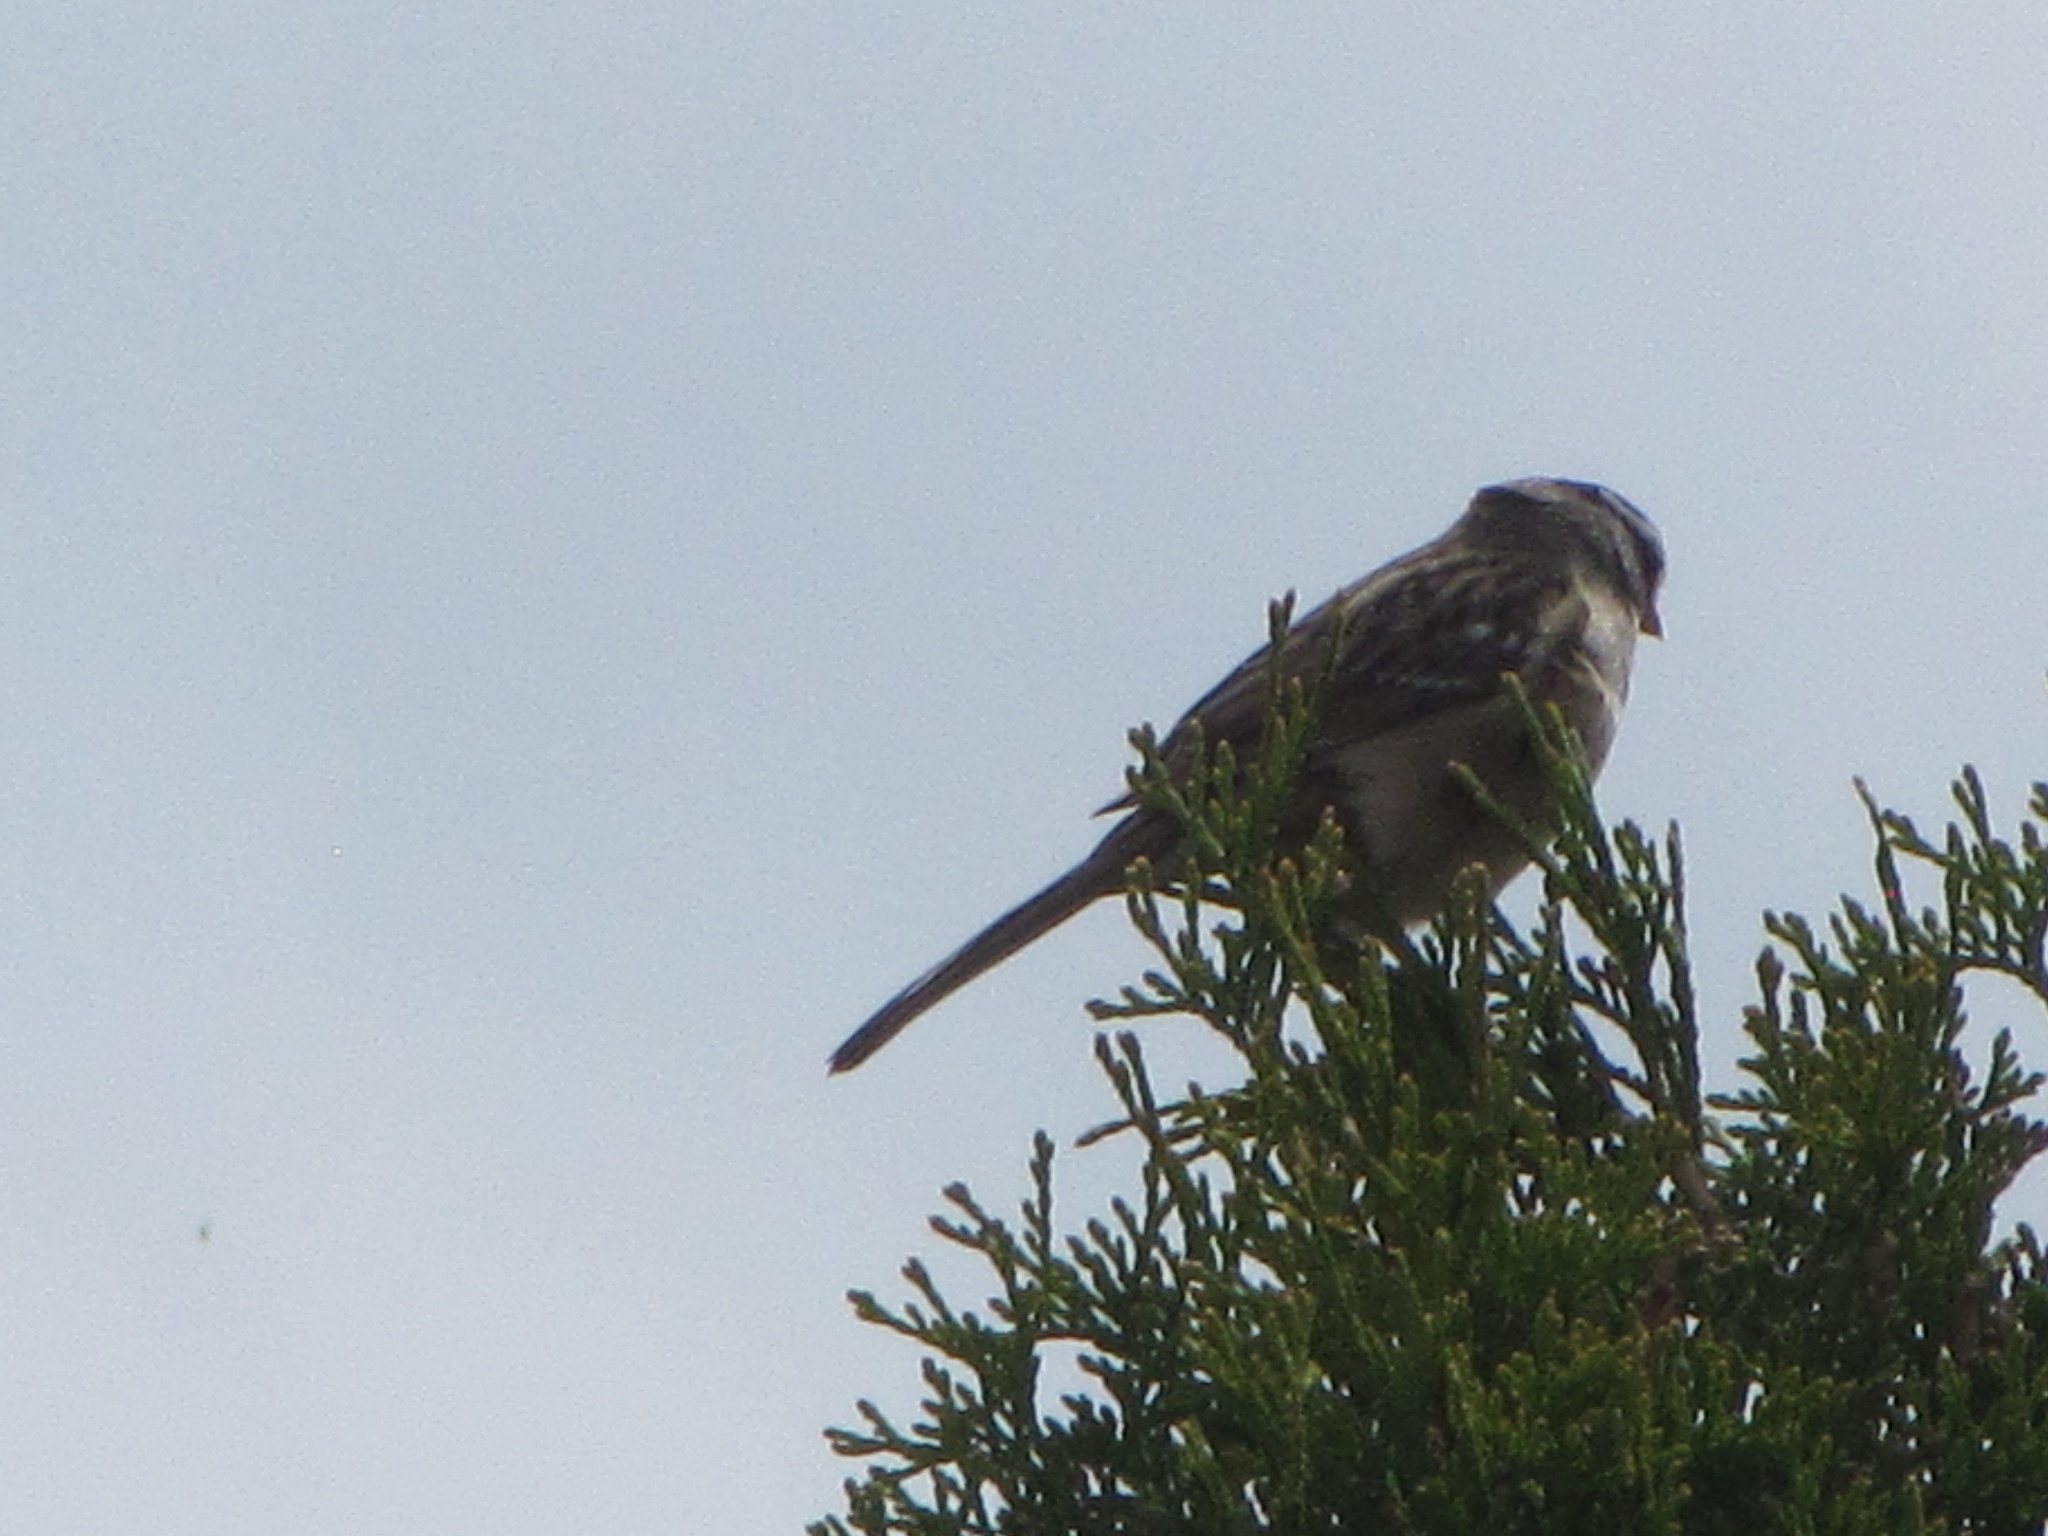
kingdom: Animalia
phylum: Chordata
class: Aves
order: Passeriformes
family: Passerellidae
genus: Zonotrichia
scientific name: Zonotrichia leucophrys
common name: White-crowned sparrow
